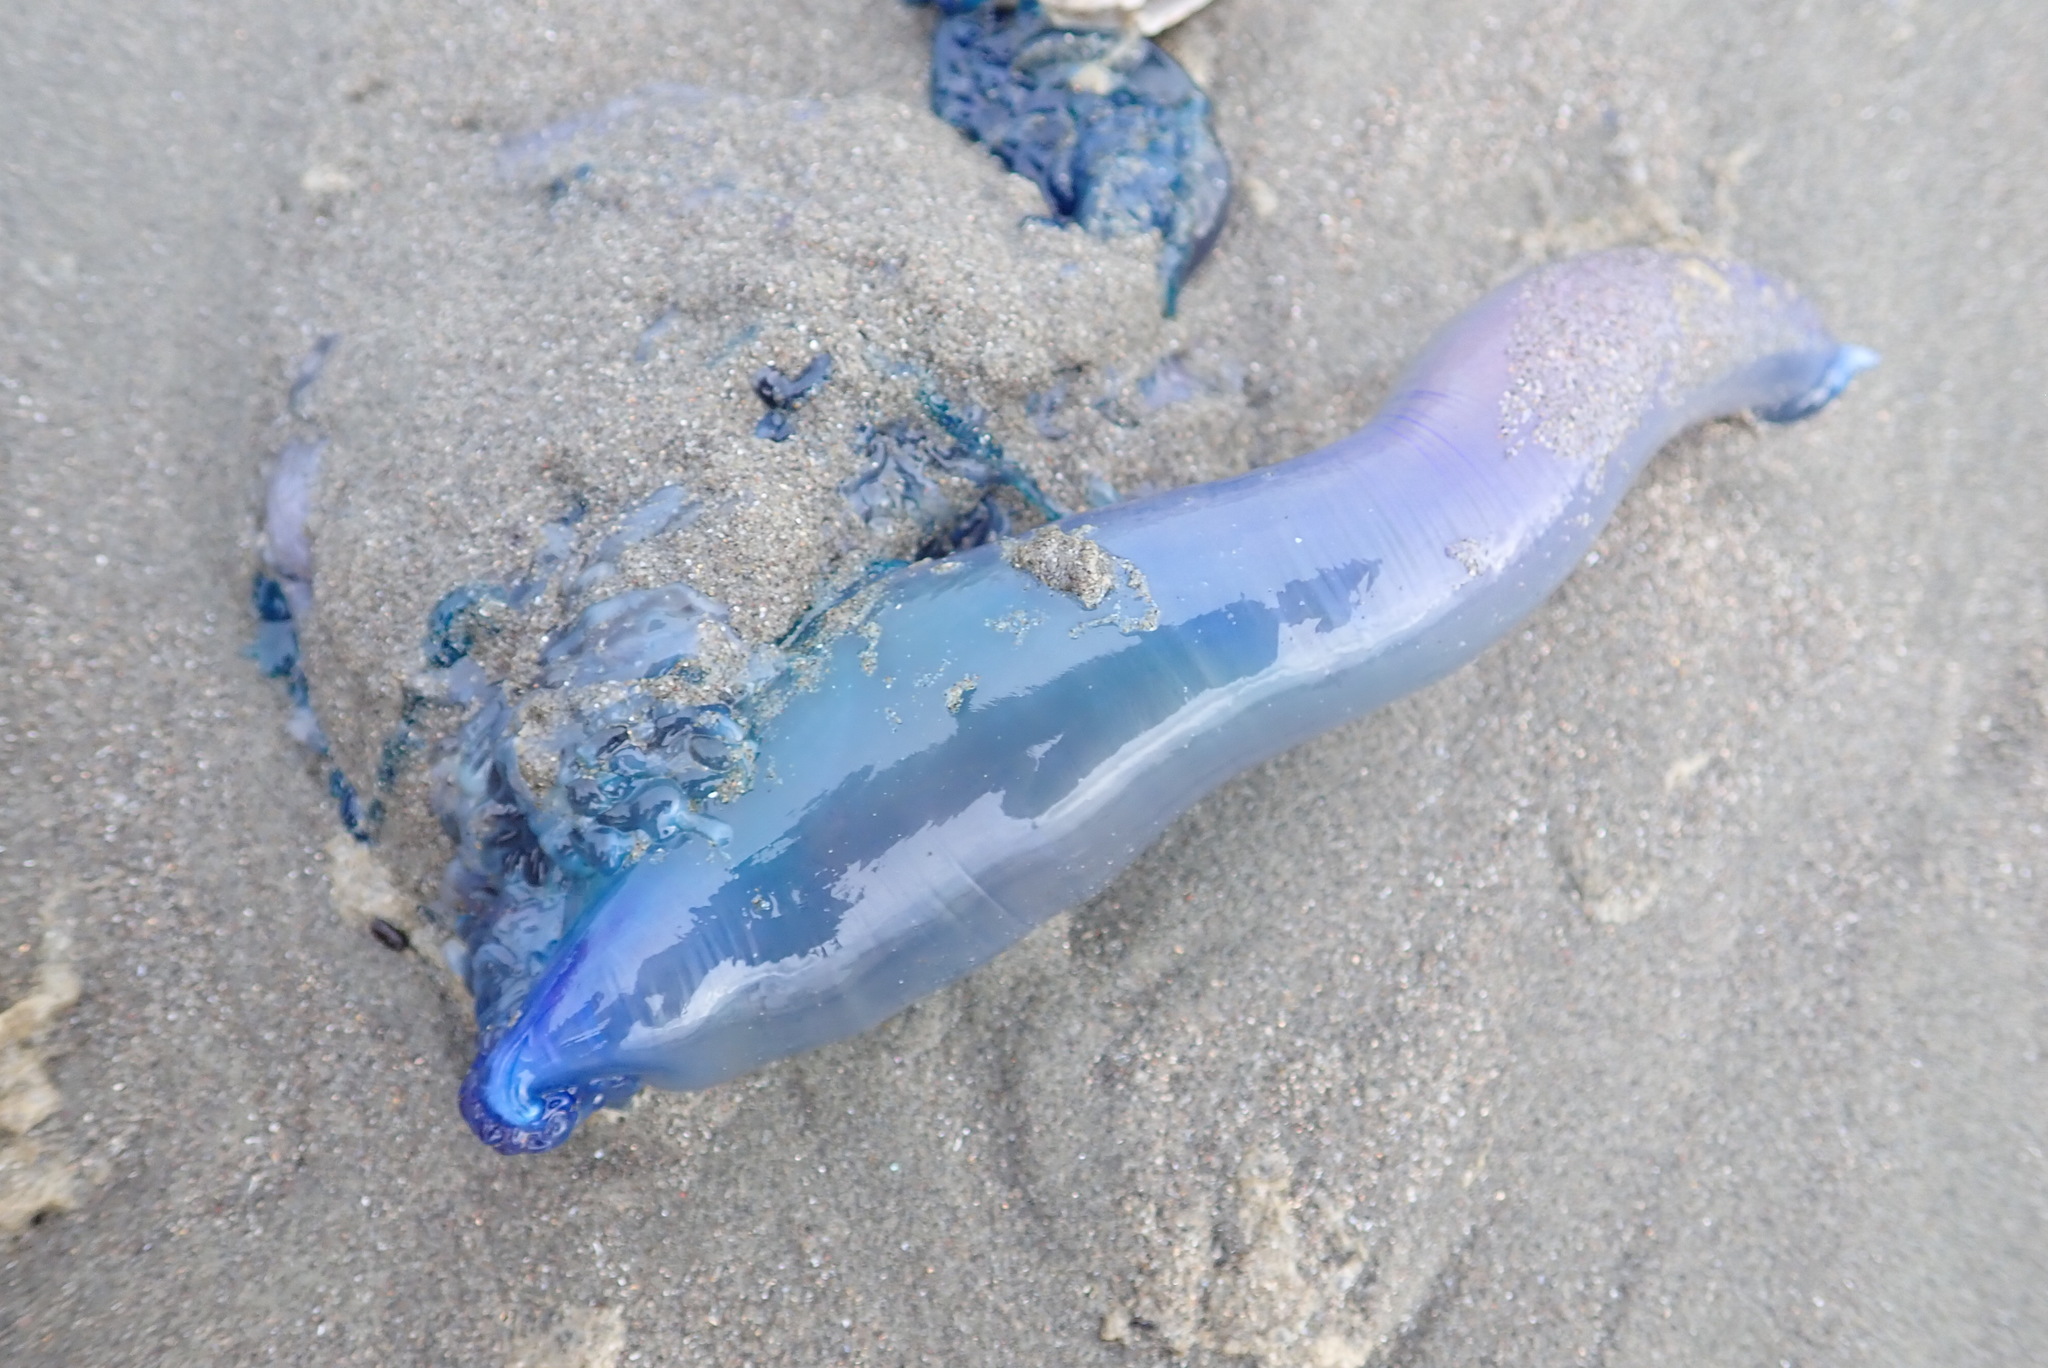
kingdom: Animalia
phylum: Cnidaria
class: Hydrozoa
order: Siphonophorae
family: Physaliidae
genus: Physalia
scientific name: Physalia physalis
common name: Portuguese man-of-war
